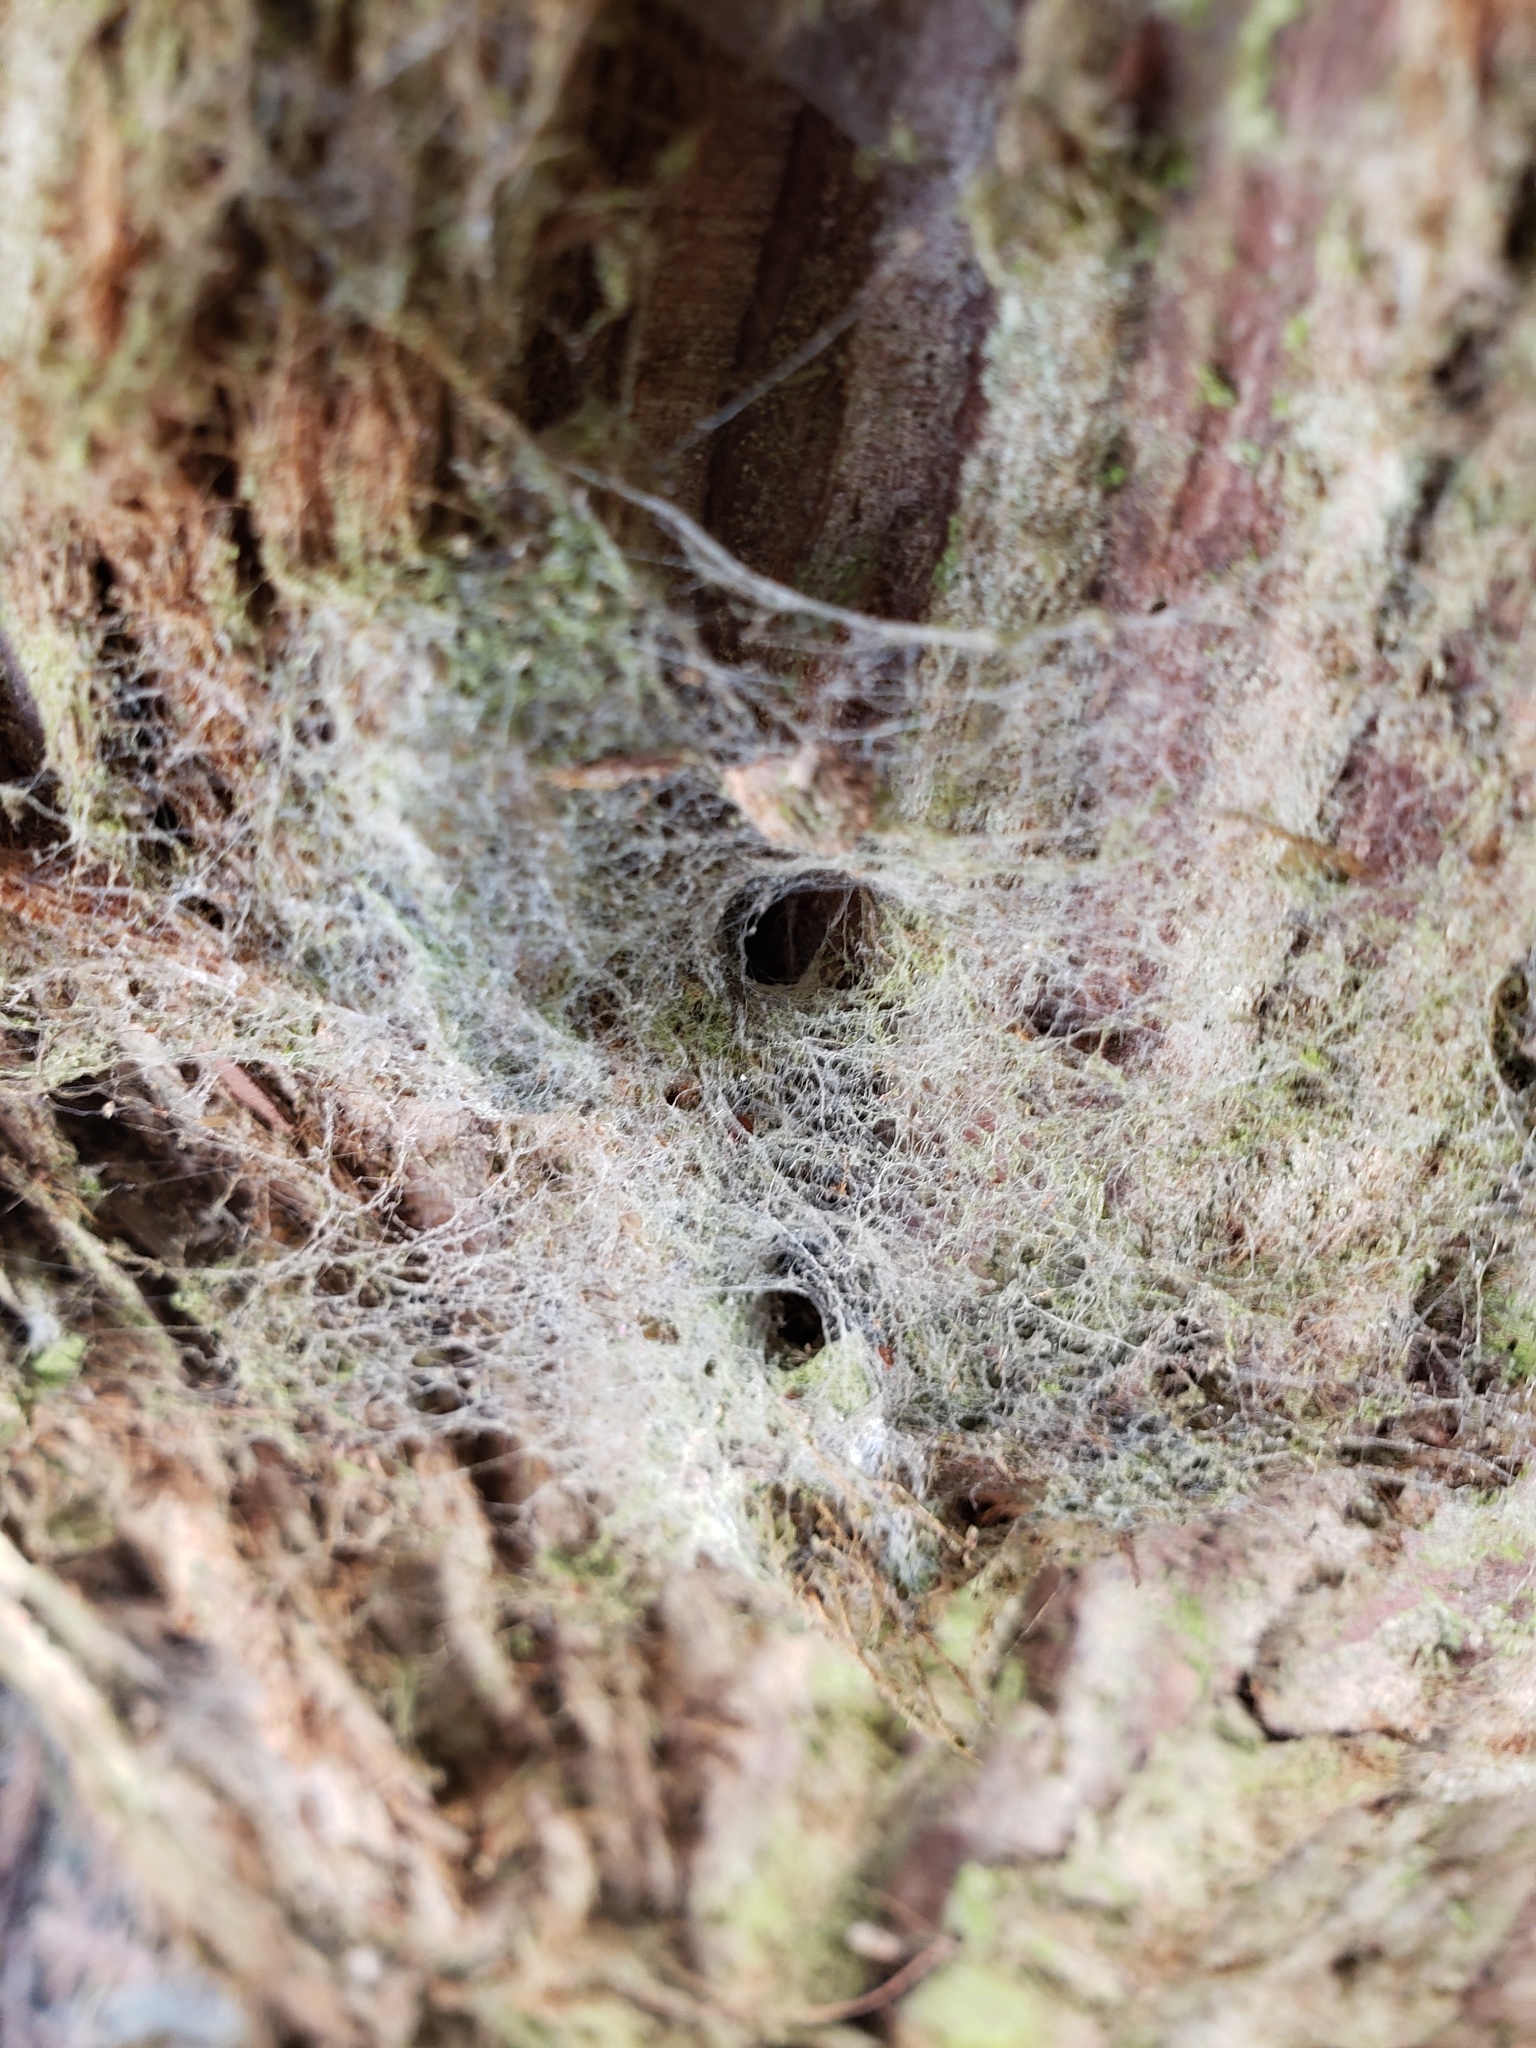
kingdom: Animalia
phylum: Arthropoda
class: Arachnida
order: Araneae
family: Desidae
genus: Badumna
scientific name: Badumna longinqua
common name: Gray house spider
